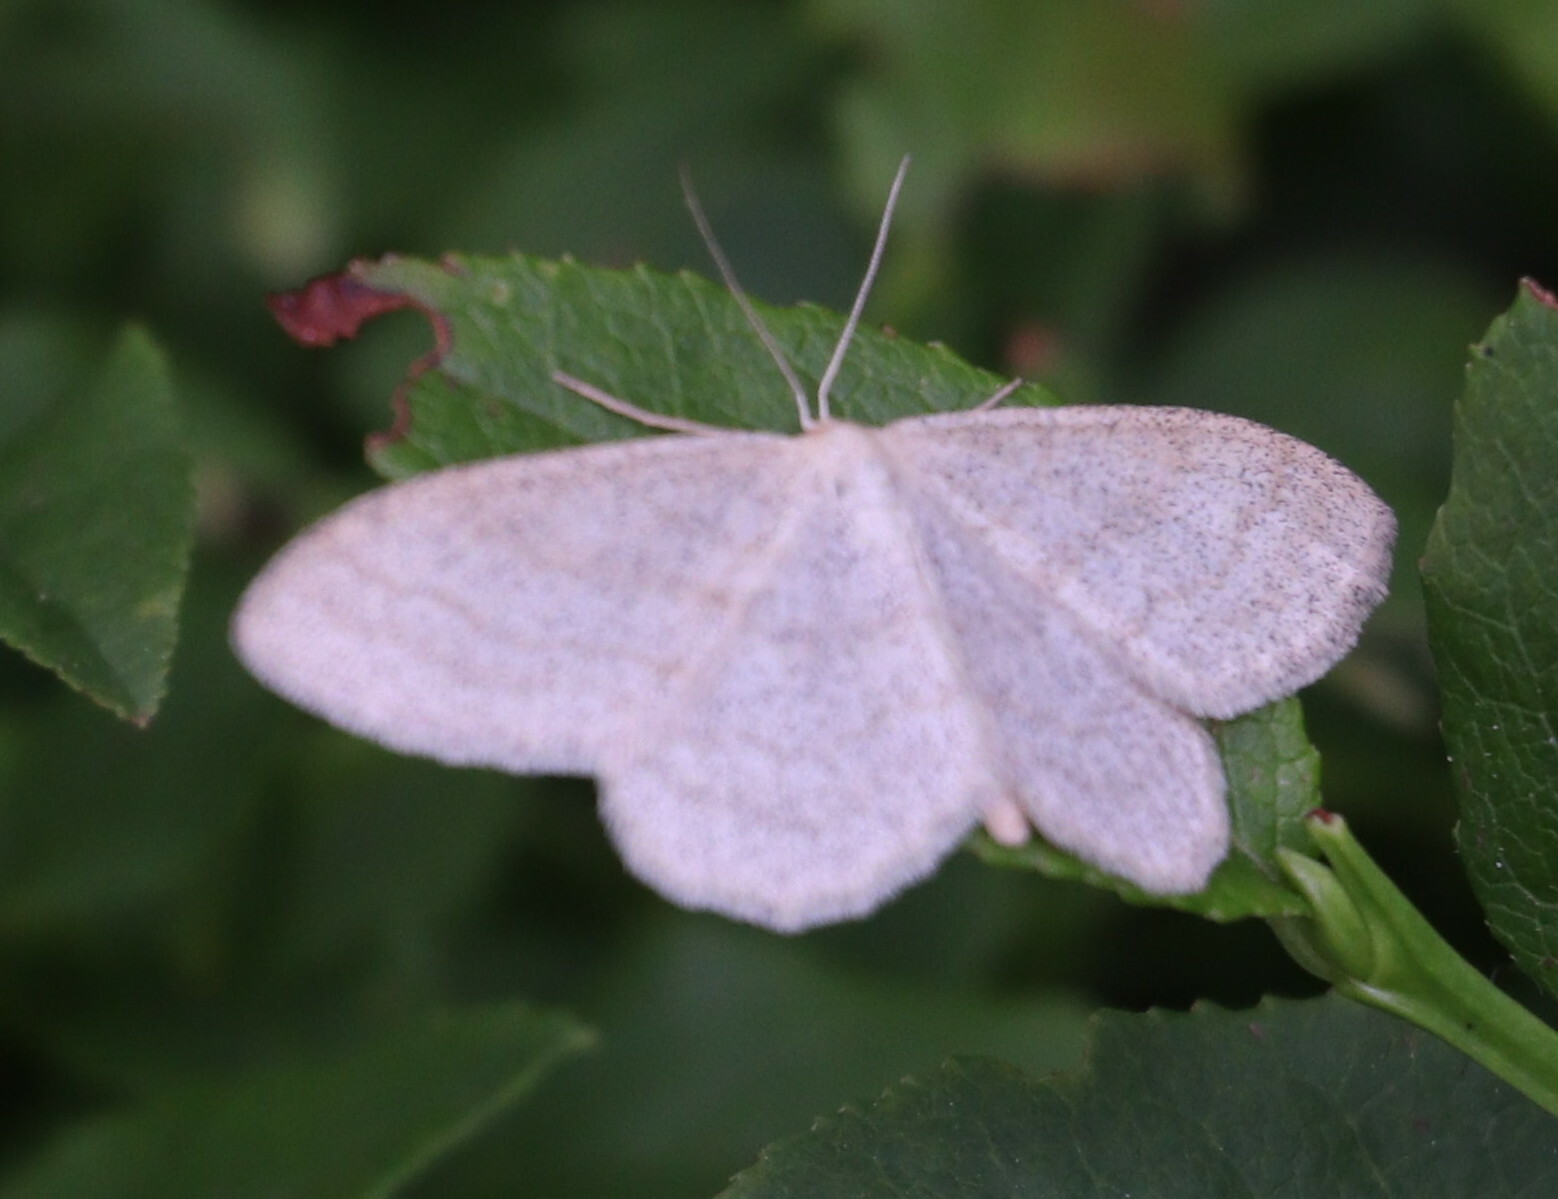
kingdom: Animalia
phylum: Arthropoda
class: Insecta
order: Lepidoptera
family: Geometridae
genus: Scopula
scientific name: Scopula ternata
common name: Smoky wave
